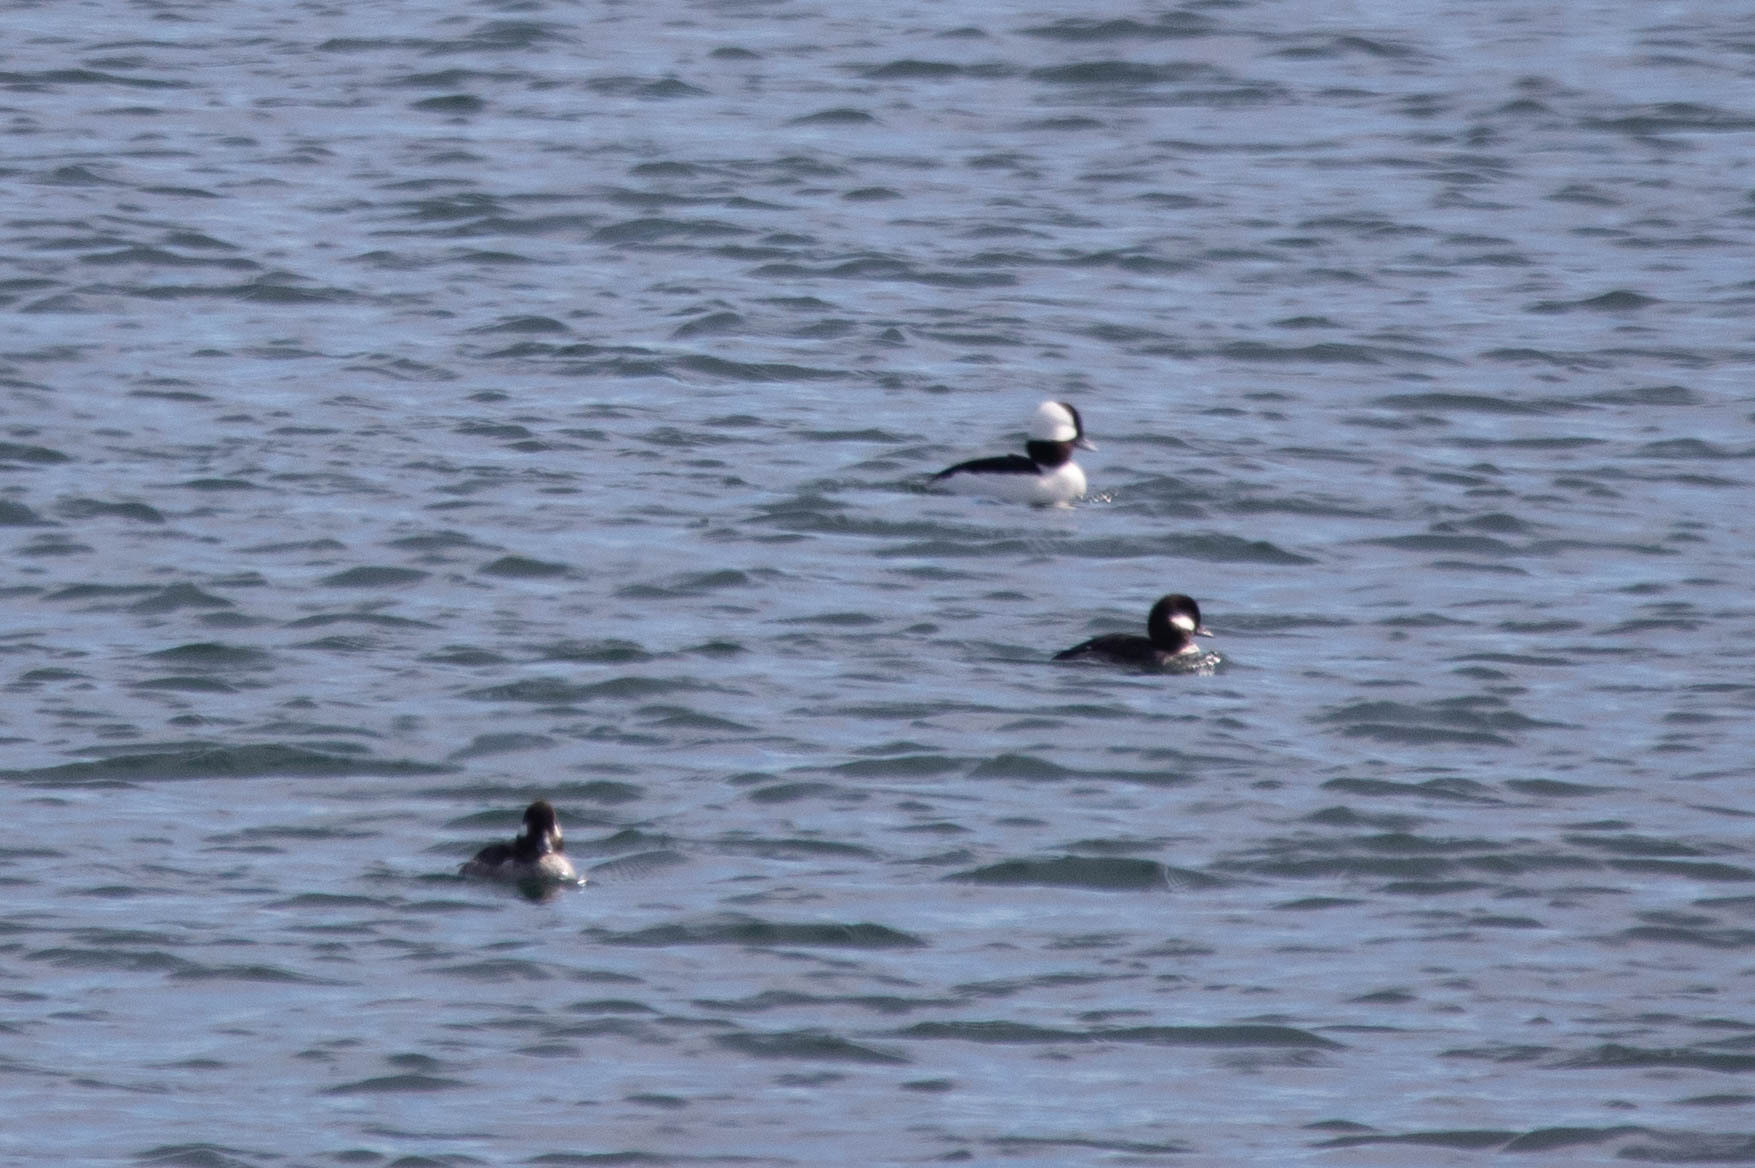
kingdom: Animalia
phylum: Chordata
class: Aves
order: Anseriformes
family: Anatidae
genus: Bucephala
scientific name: Bucephala albeola
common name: Bufflehead
